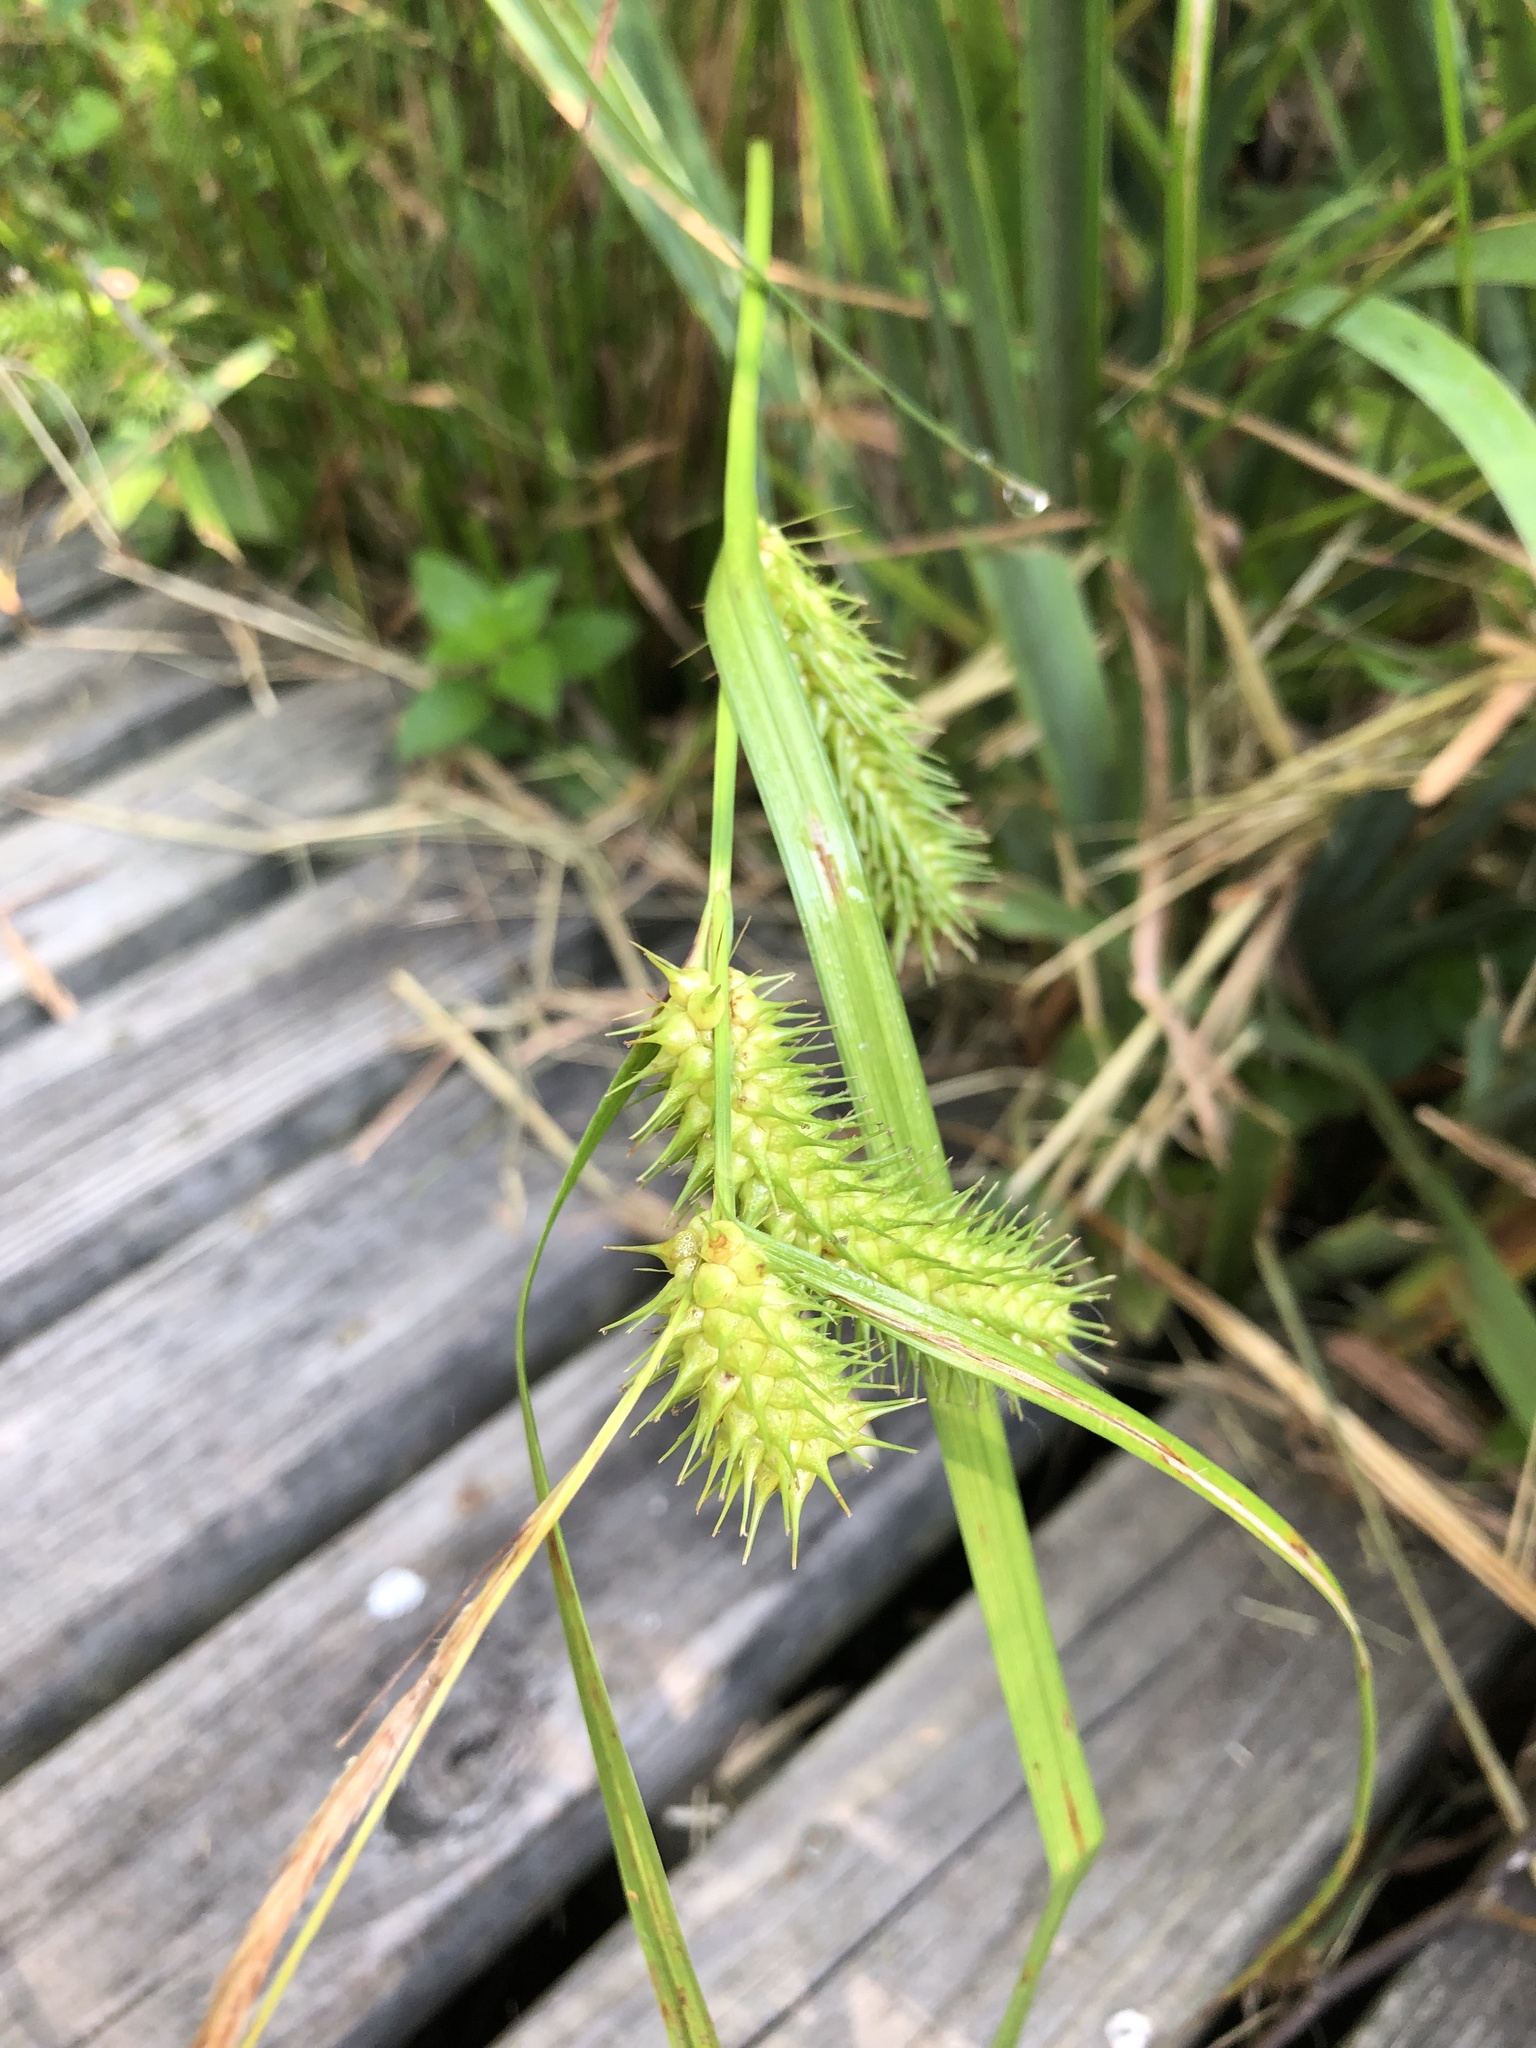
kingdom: Plantae
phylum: Tracheophyta
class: Liliopsida
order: Poales
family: Cyperaceae
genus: Carex
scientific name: Carex lurida
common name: Sallow sedge
